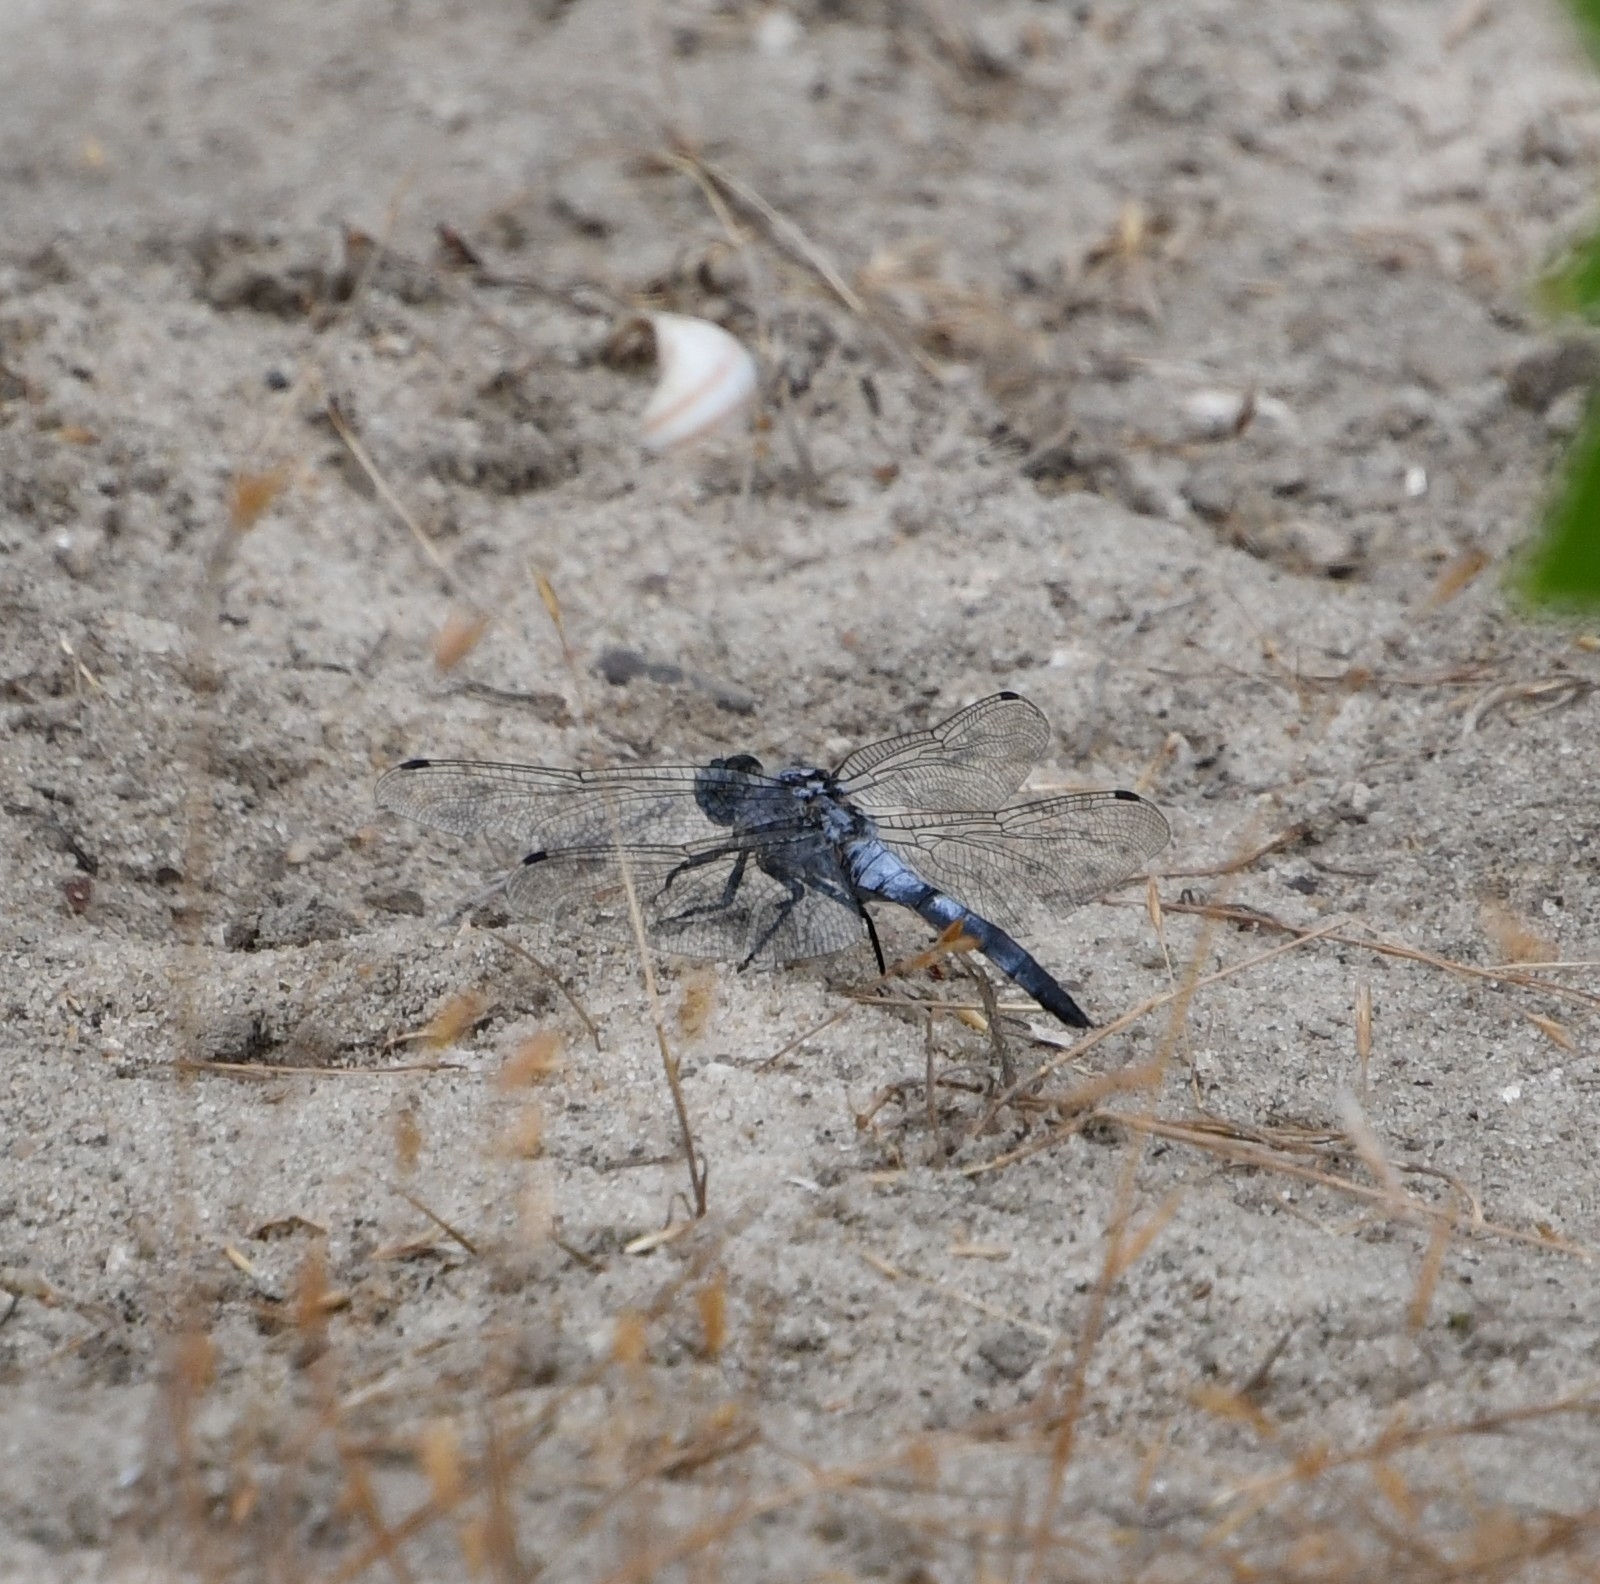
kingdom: Animalia
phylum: Arthropoda
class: Insecta
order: Odonata
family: Libellulidae
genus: Orthetrum
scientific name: Orthetrum cancellatum
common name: Black-tailed skimmer
